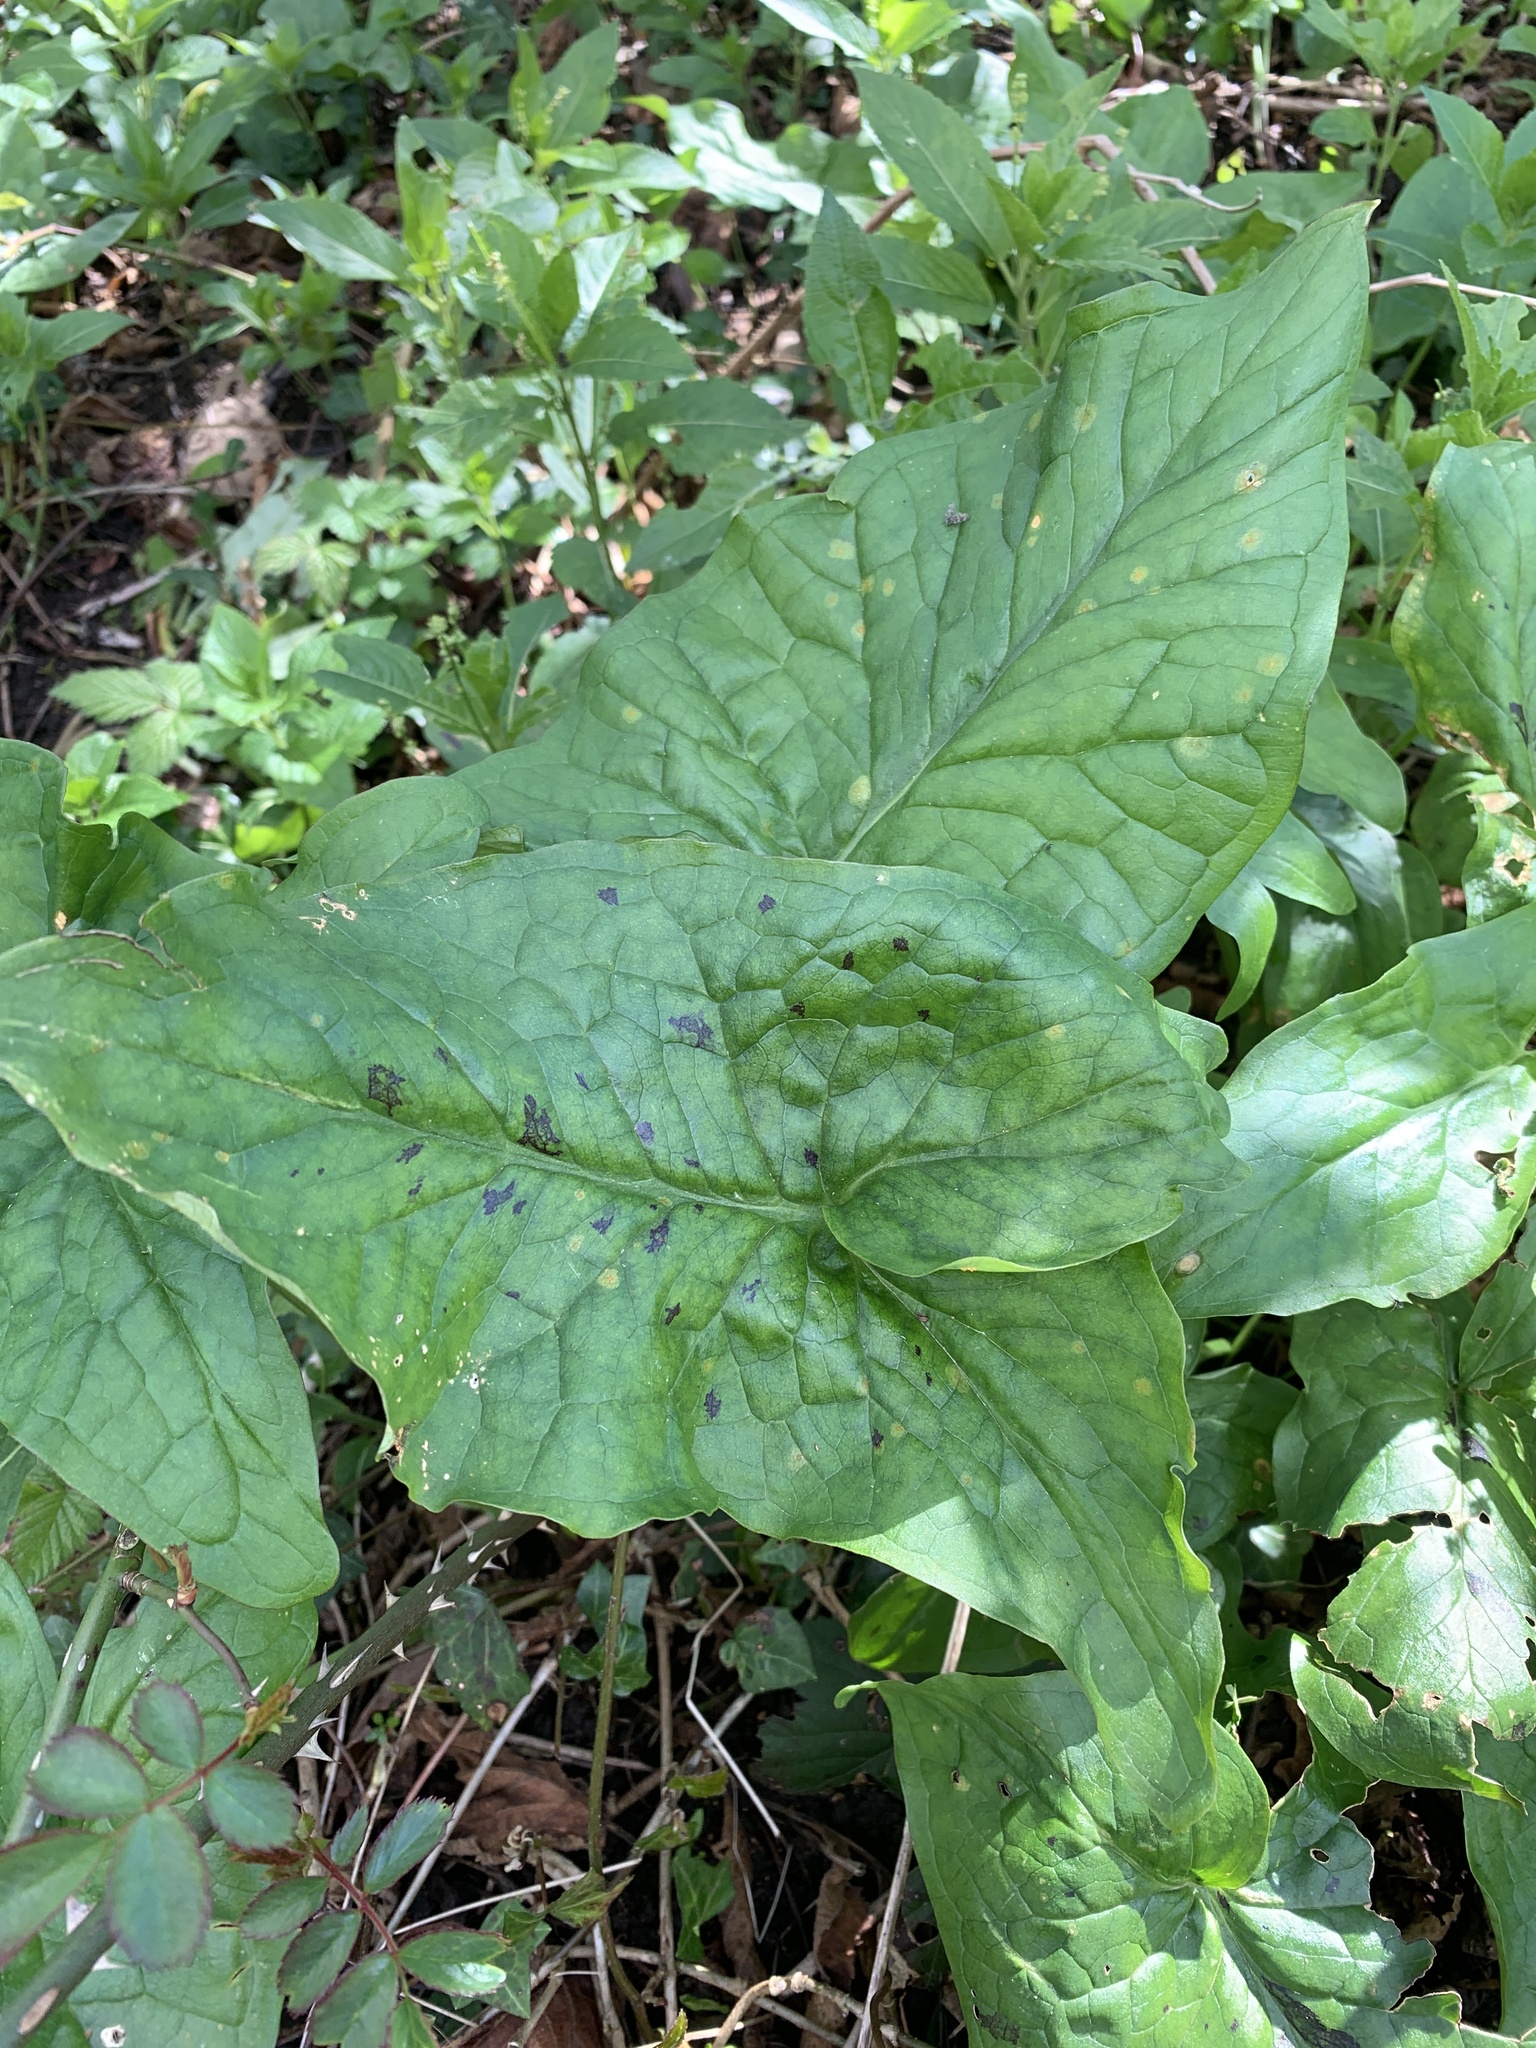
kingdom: Plantae
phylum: Tracheophyta
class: Liliopsida
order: Alismatales
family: Araceae
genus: Arum
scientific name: Arum maculatum
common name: Lords-and-ladies
